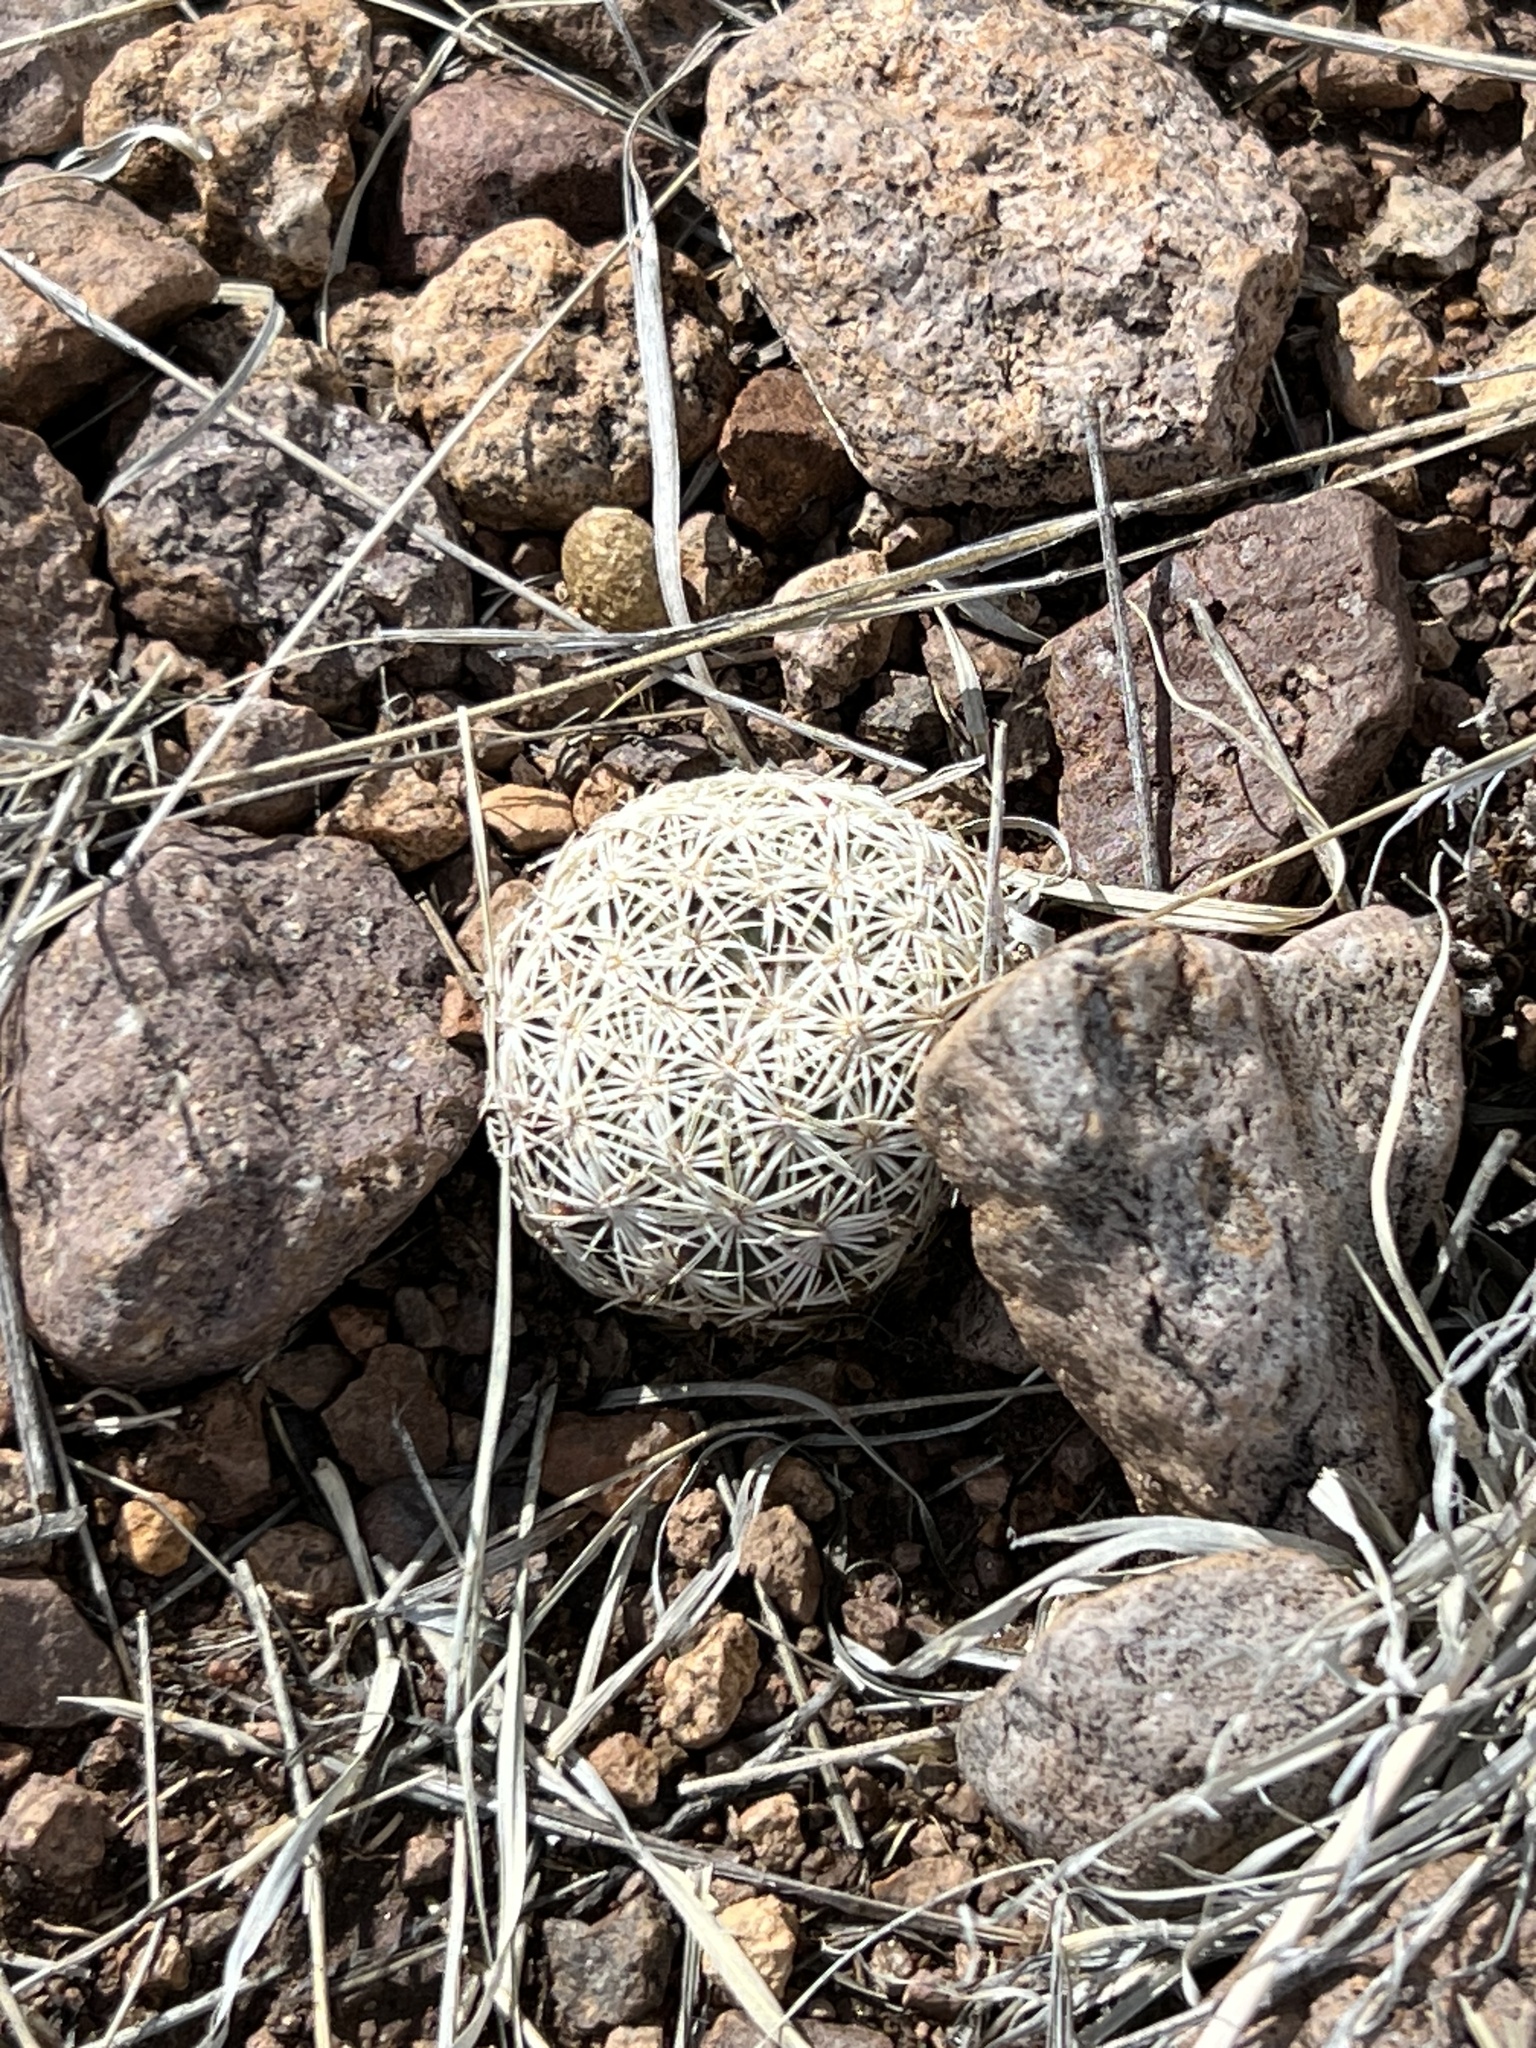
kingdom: Plantae
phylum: Tracheophyta
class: Magnoliopsida
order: Caryophyllales
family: Cactaceae
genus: Sclerocactus
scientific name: Sclerocactus johnsonii
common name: Eight-spine fishhook cactus
